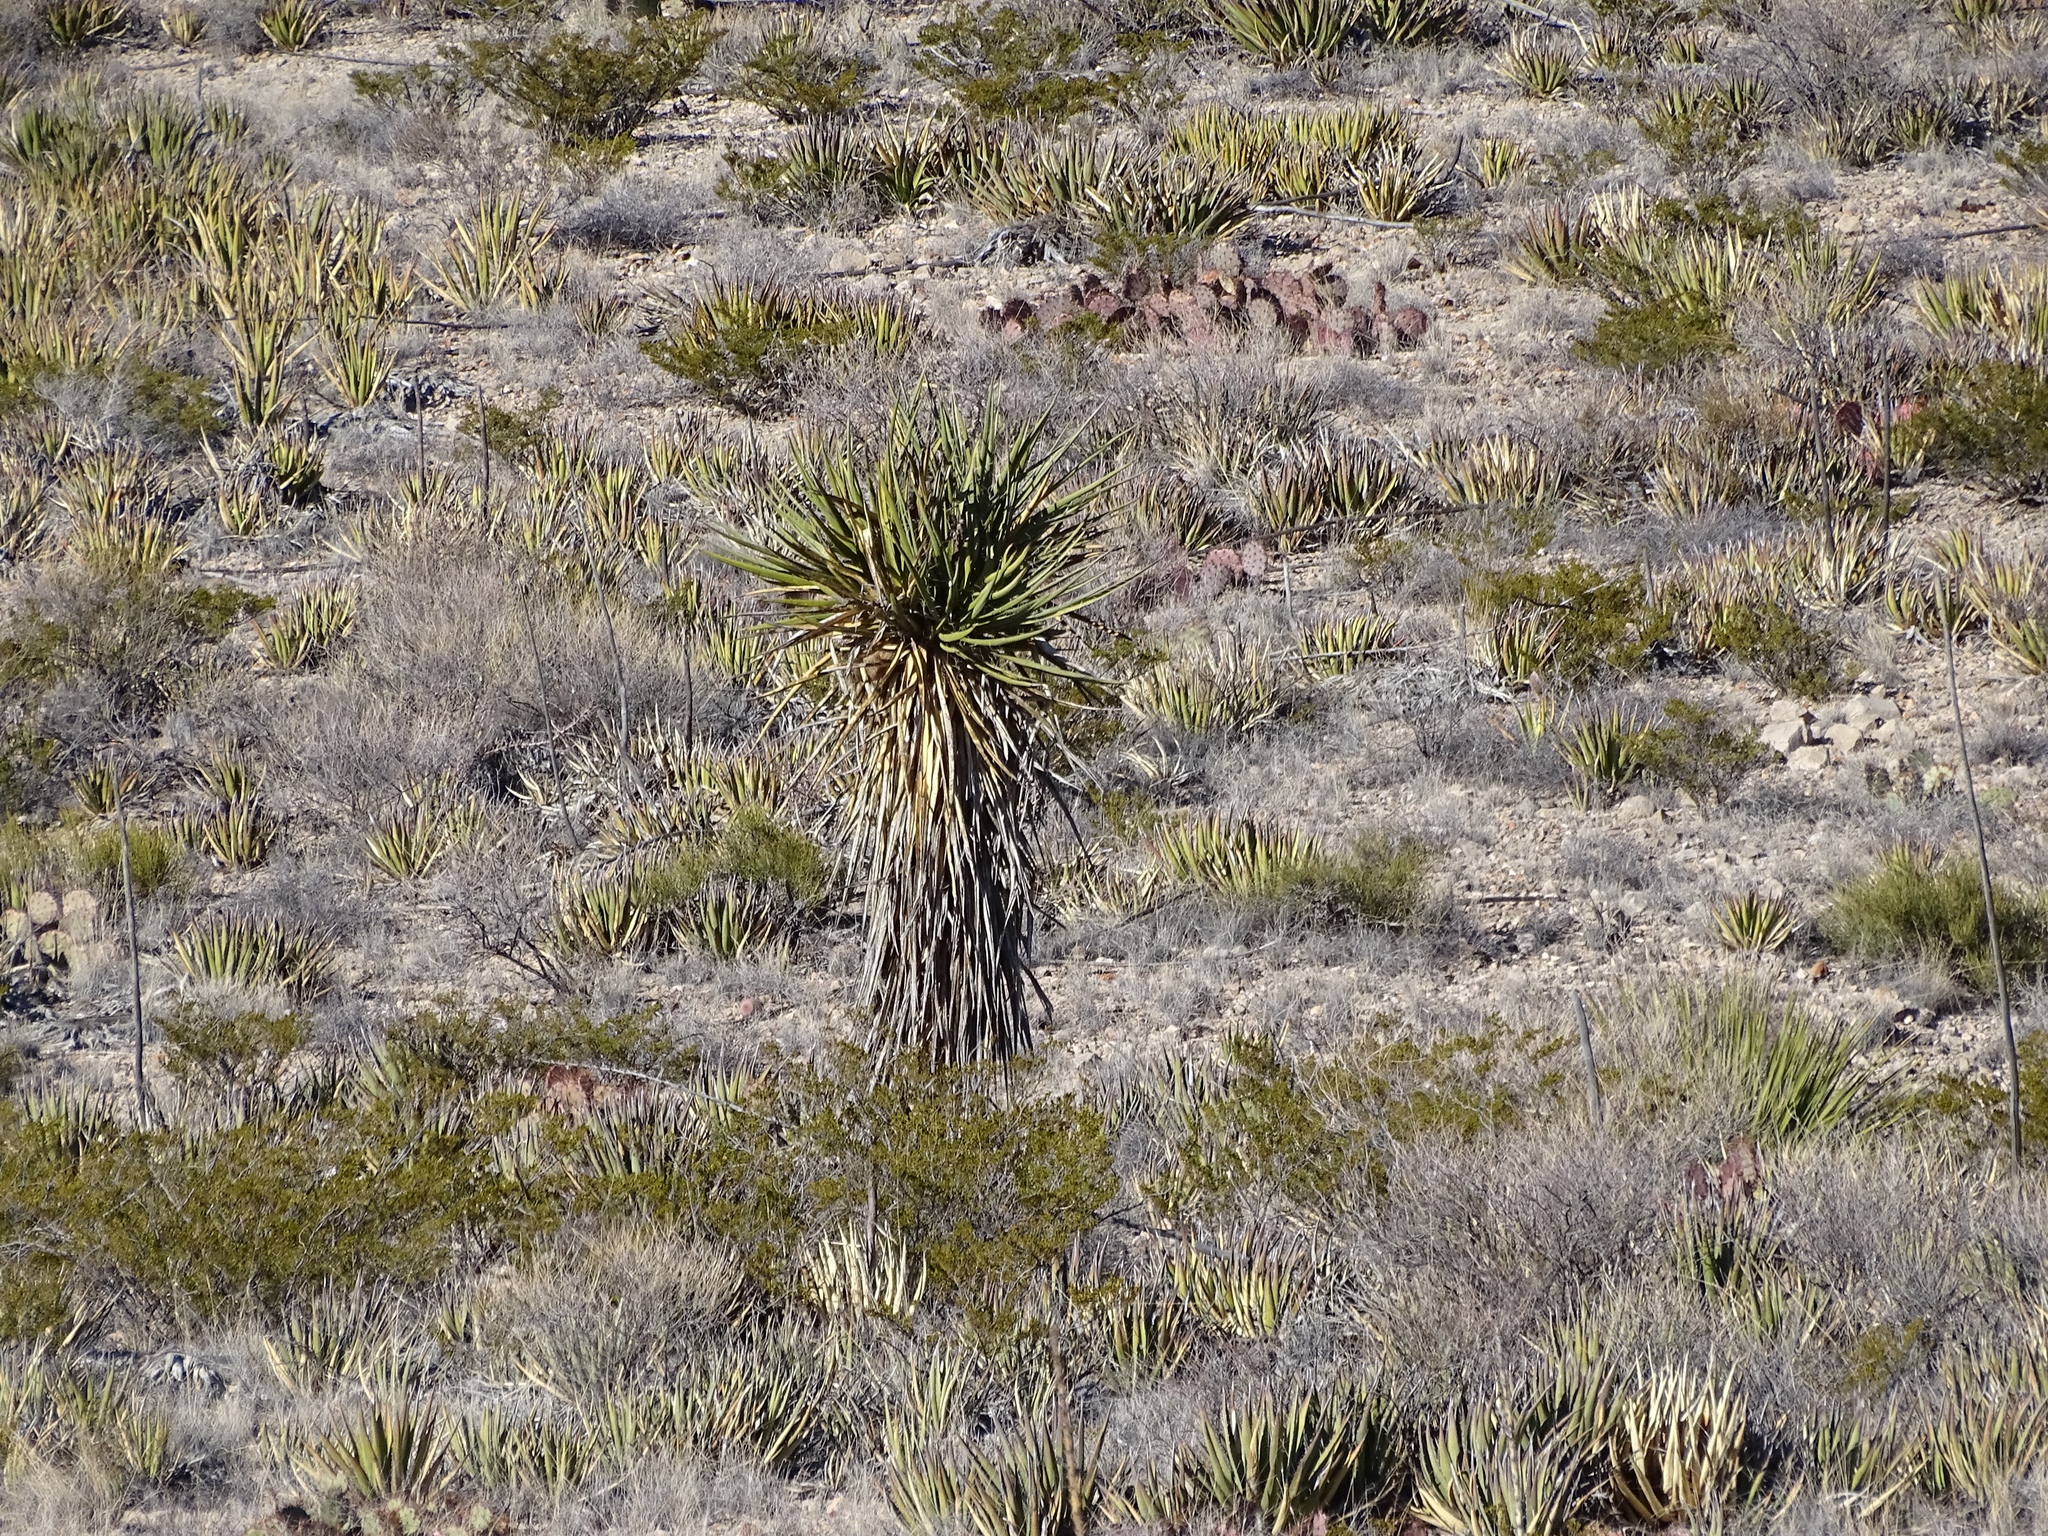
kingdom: Plantae
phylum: Tracheophyta
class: Liliopsida
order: Asparagales
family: Asparagaceae
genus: Yucca
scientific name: Yucca treculiana
